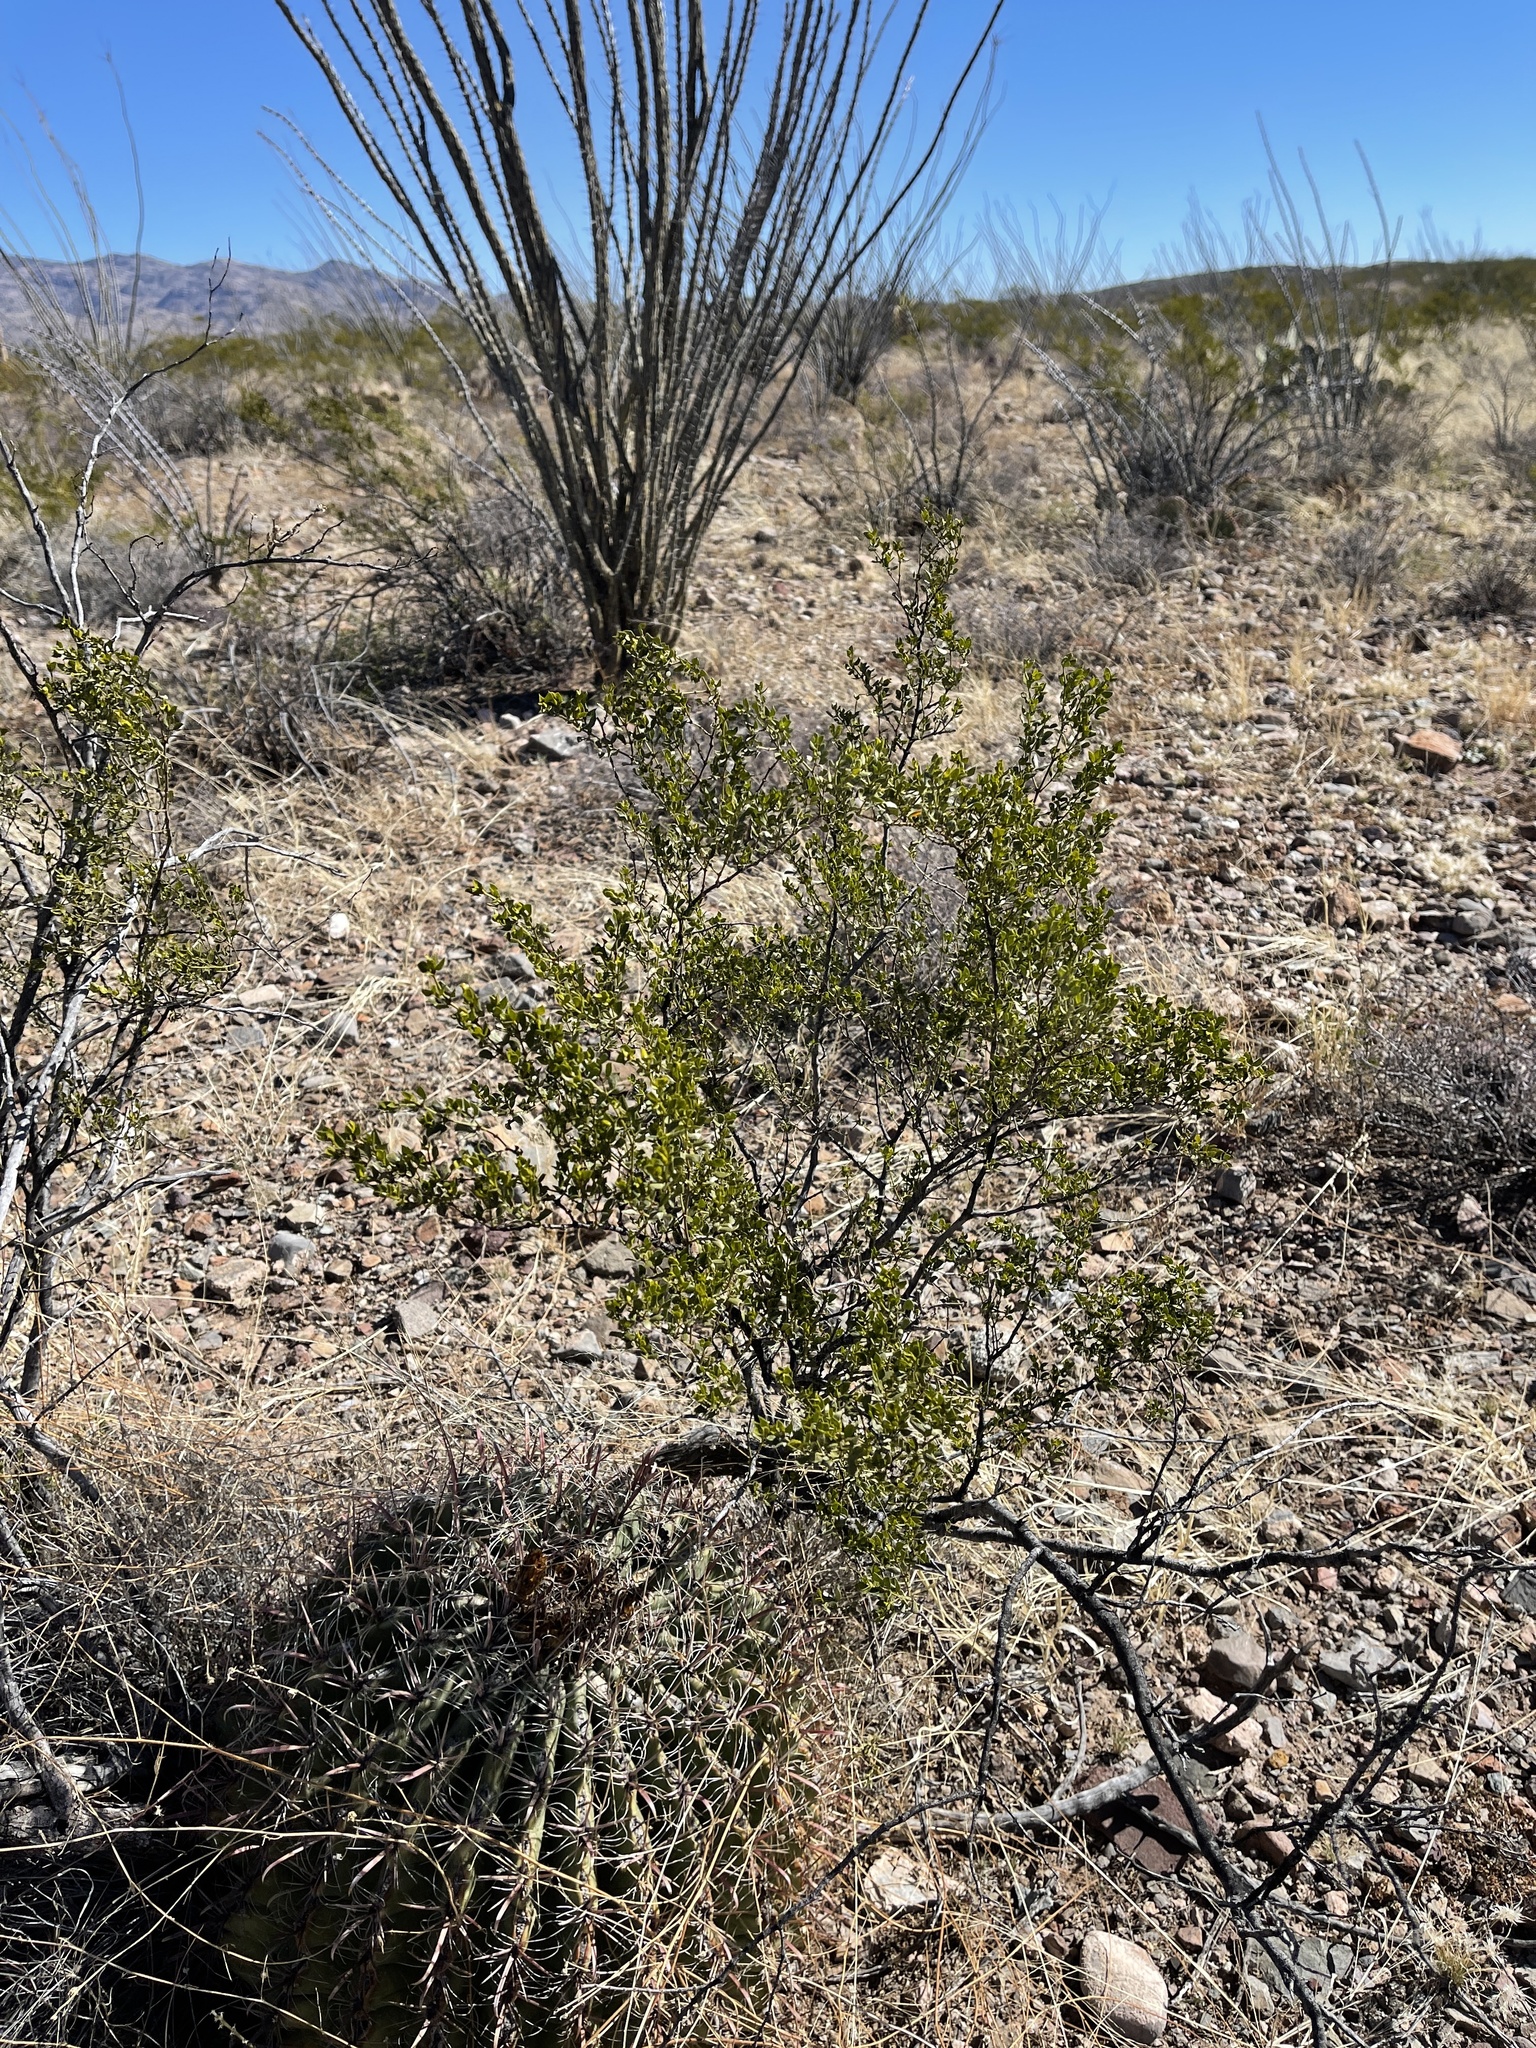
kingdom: Plantae
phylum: Tracheophyta
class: Magnoliopsida
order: Zygophyllales
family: Zygophyllaceae
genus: Larrea
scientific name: Larrea tridentata
